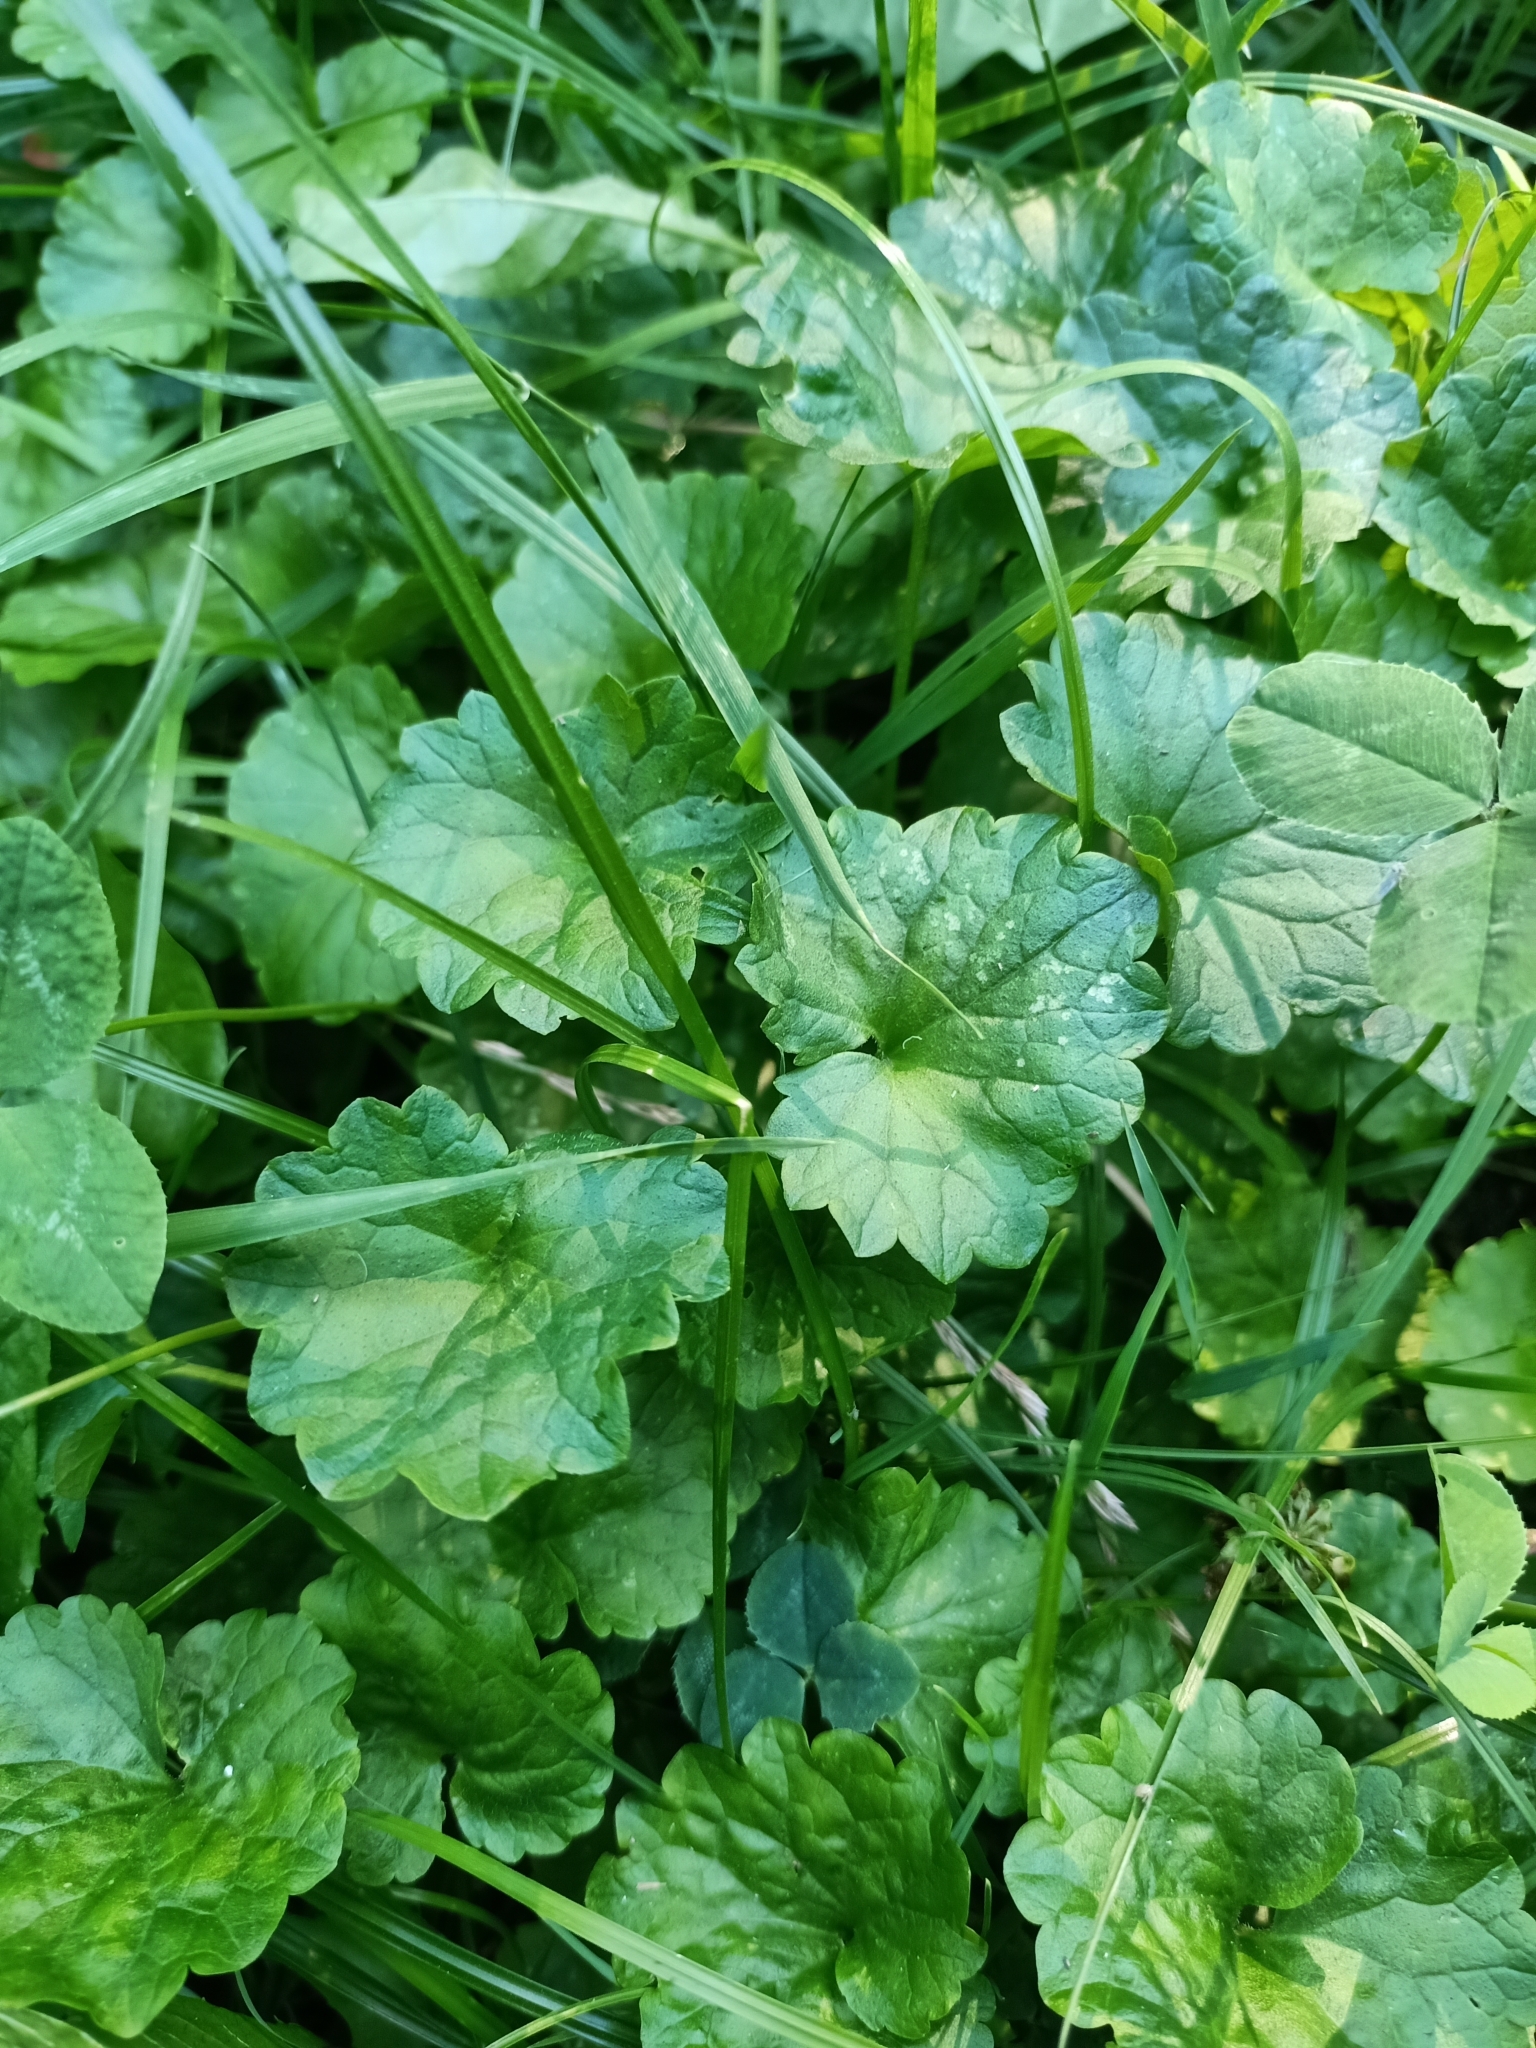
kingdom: Plantae
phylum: Tracheophyta
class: Magnoliopsida
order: Lamiales
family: Lamiaceae
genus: Glechoma
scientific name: Glechoma hederacea
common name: Ground ivy
